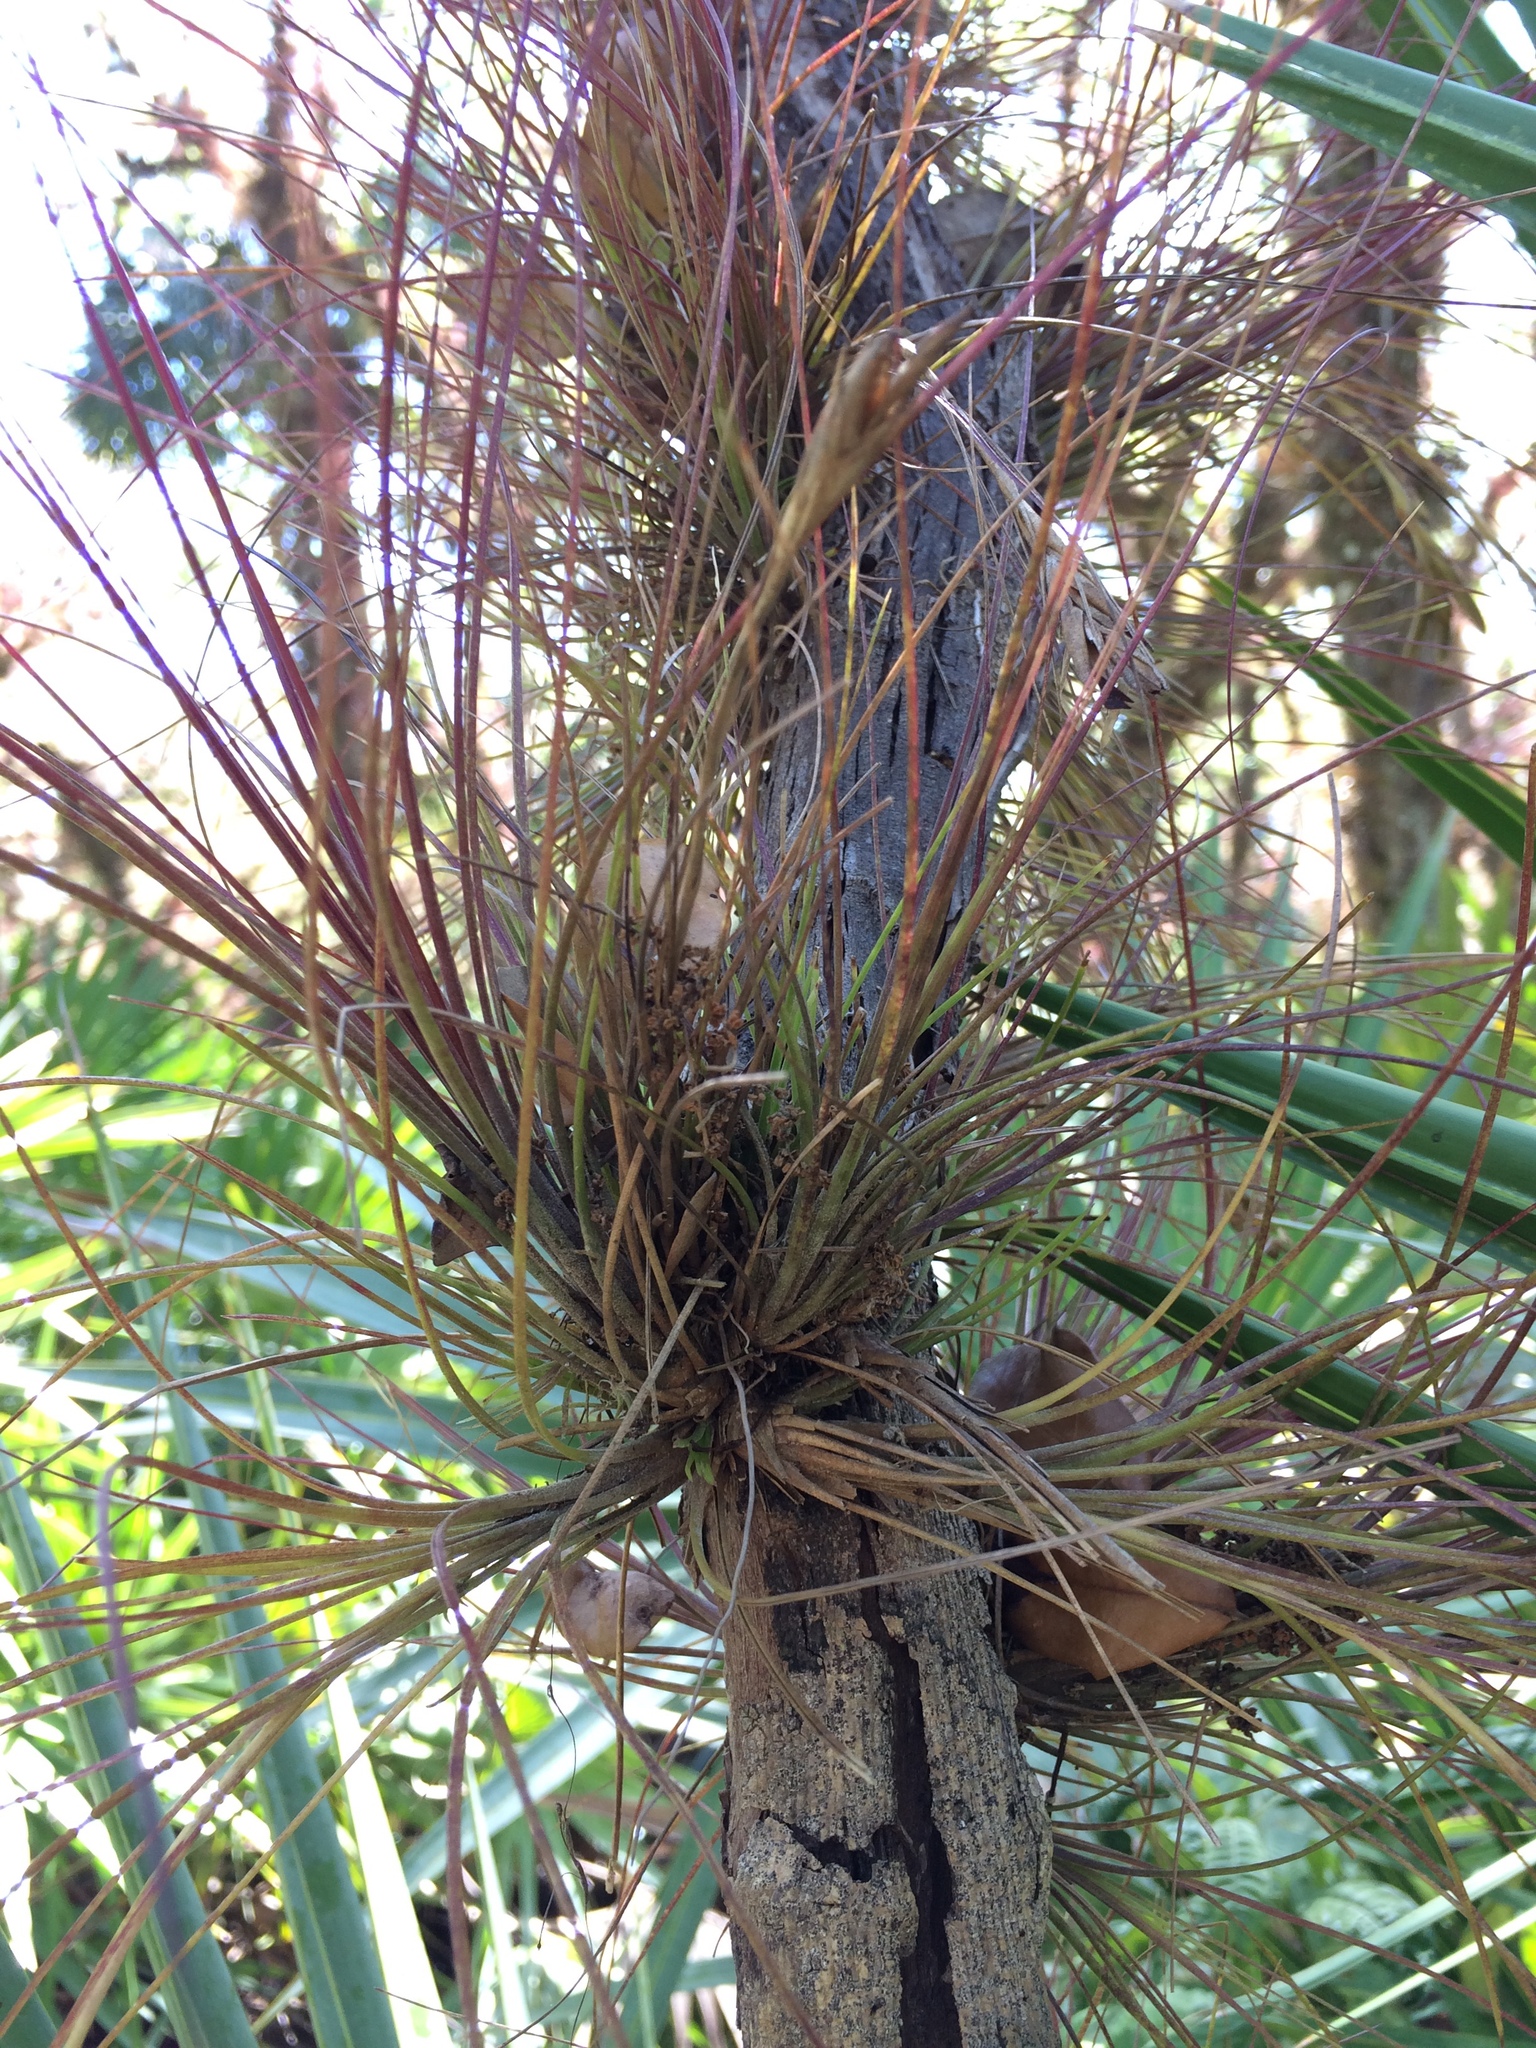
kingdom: Plantae
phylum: Tracheophyta
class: Liliopsida
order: Poales
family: Bromeliaceae
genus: Tillandsia
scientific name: Tillandsia setacea
